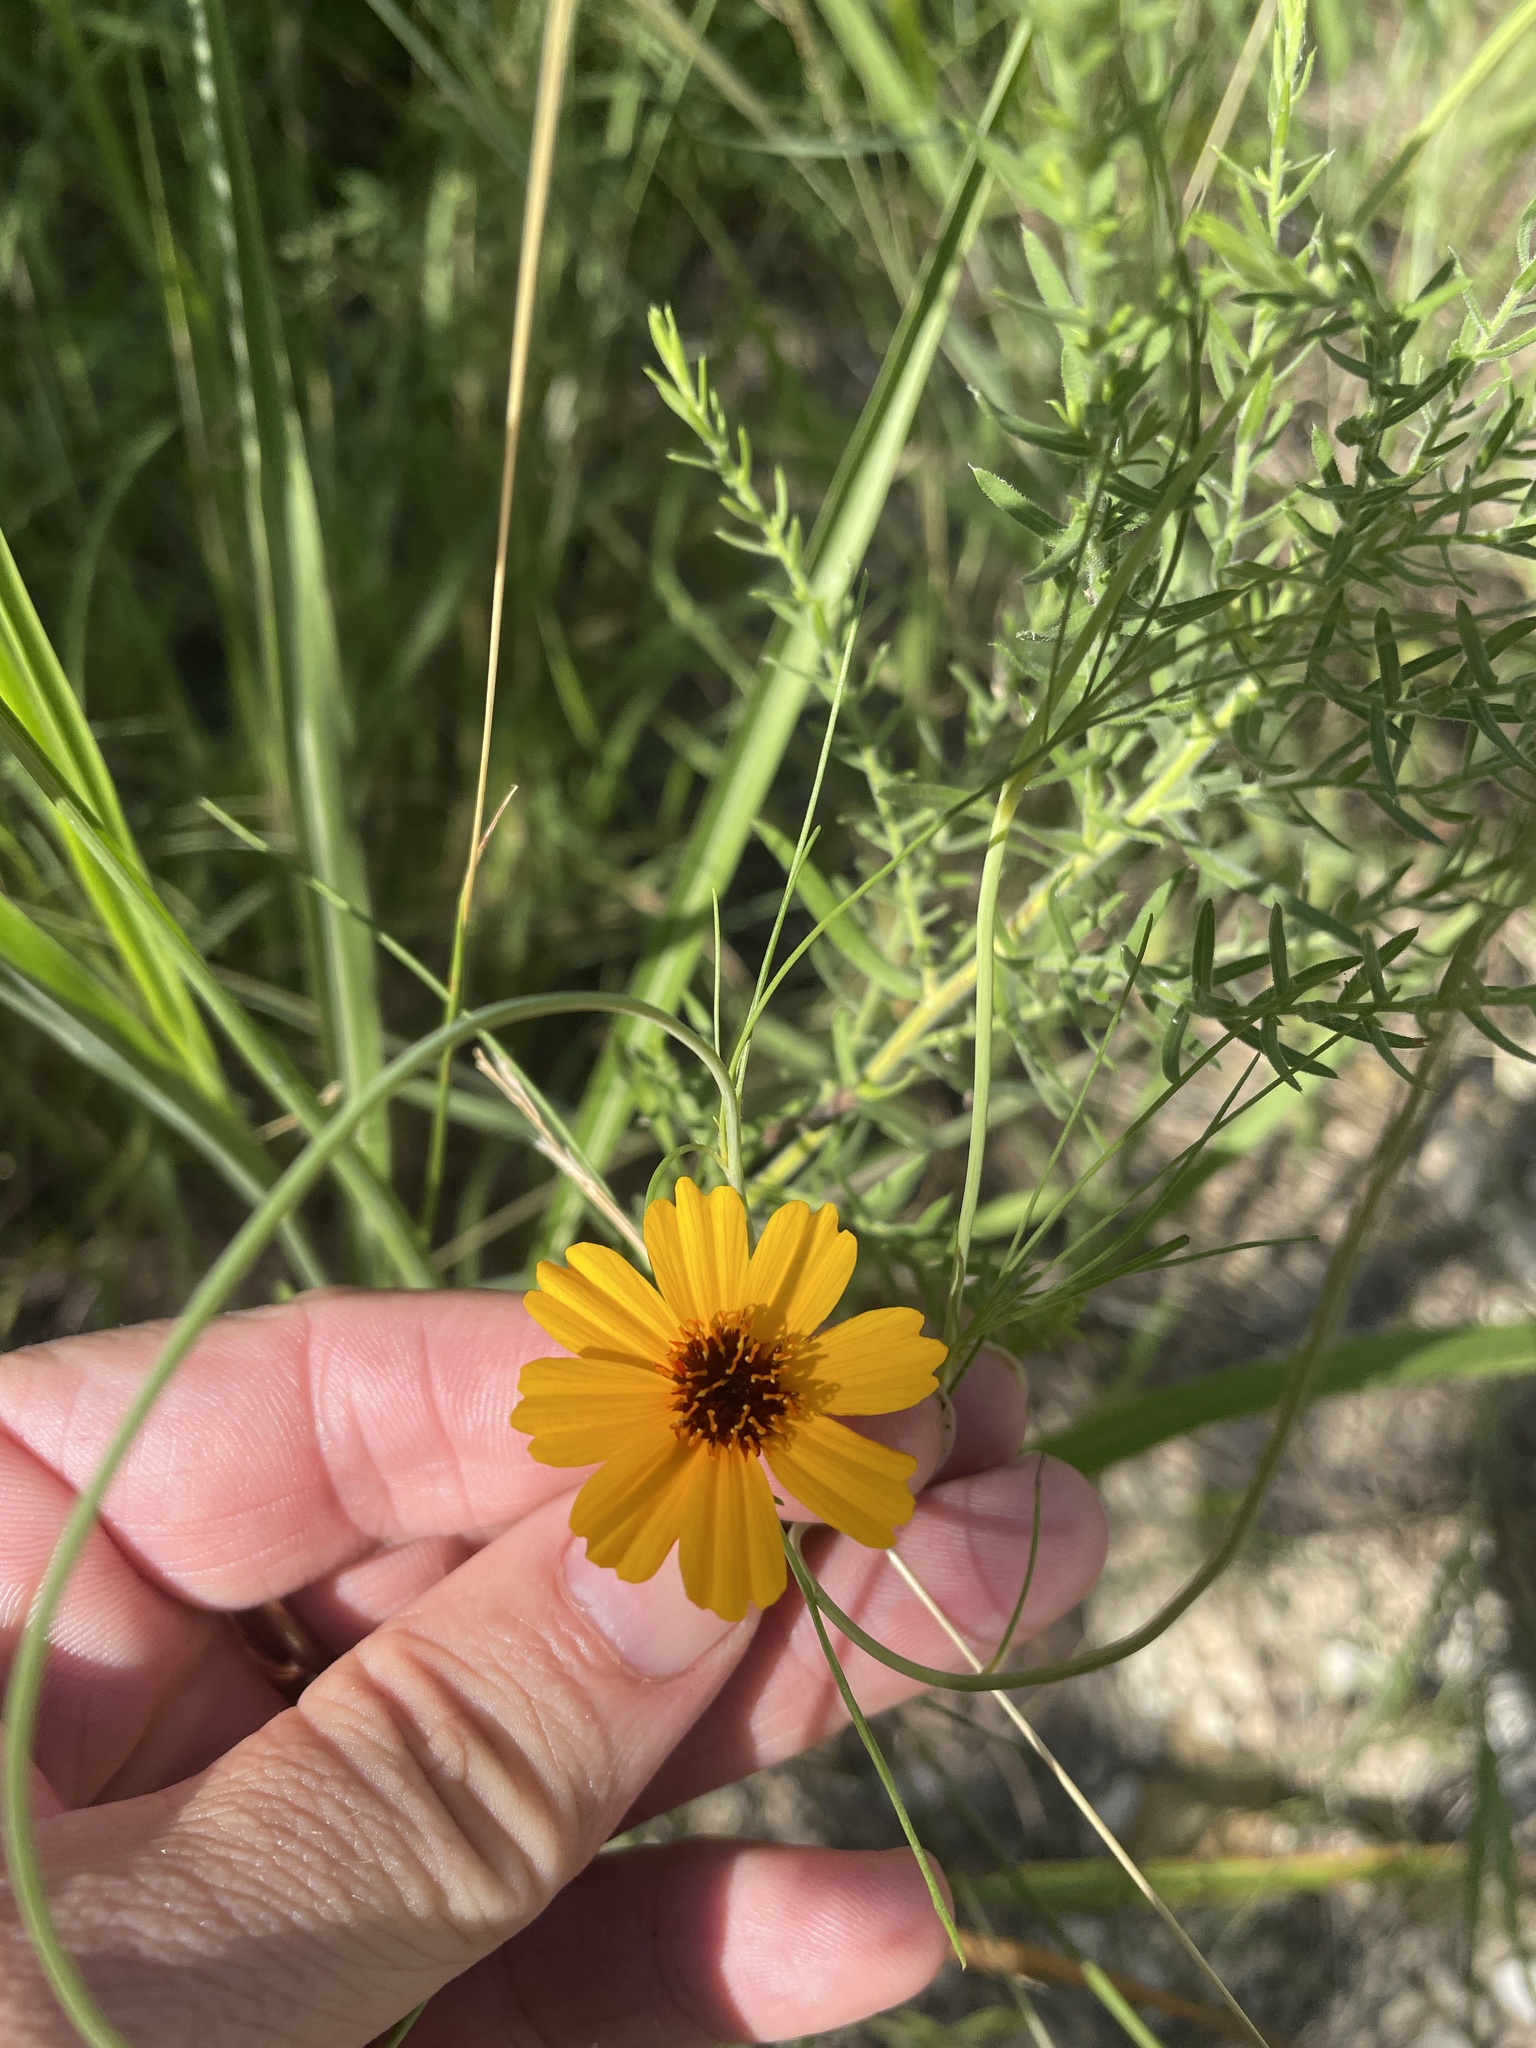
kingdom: Plantae
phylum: Tracheophyta
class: Magnoliopsida
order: Asterales
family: Asteraceae
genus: Thelesperma
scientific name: Thelesperma filifolium
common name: Stiff greenthread
